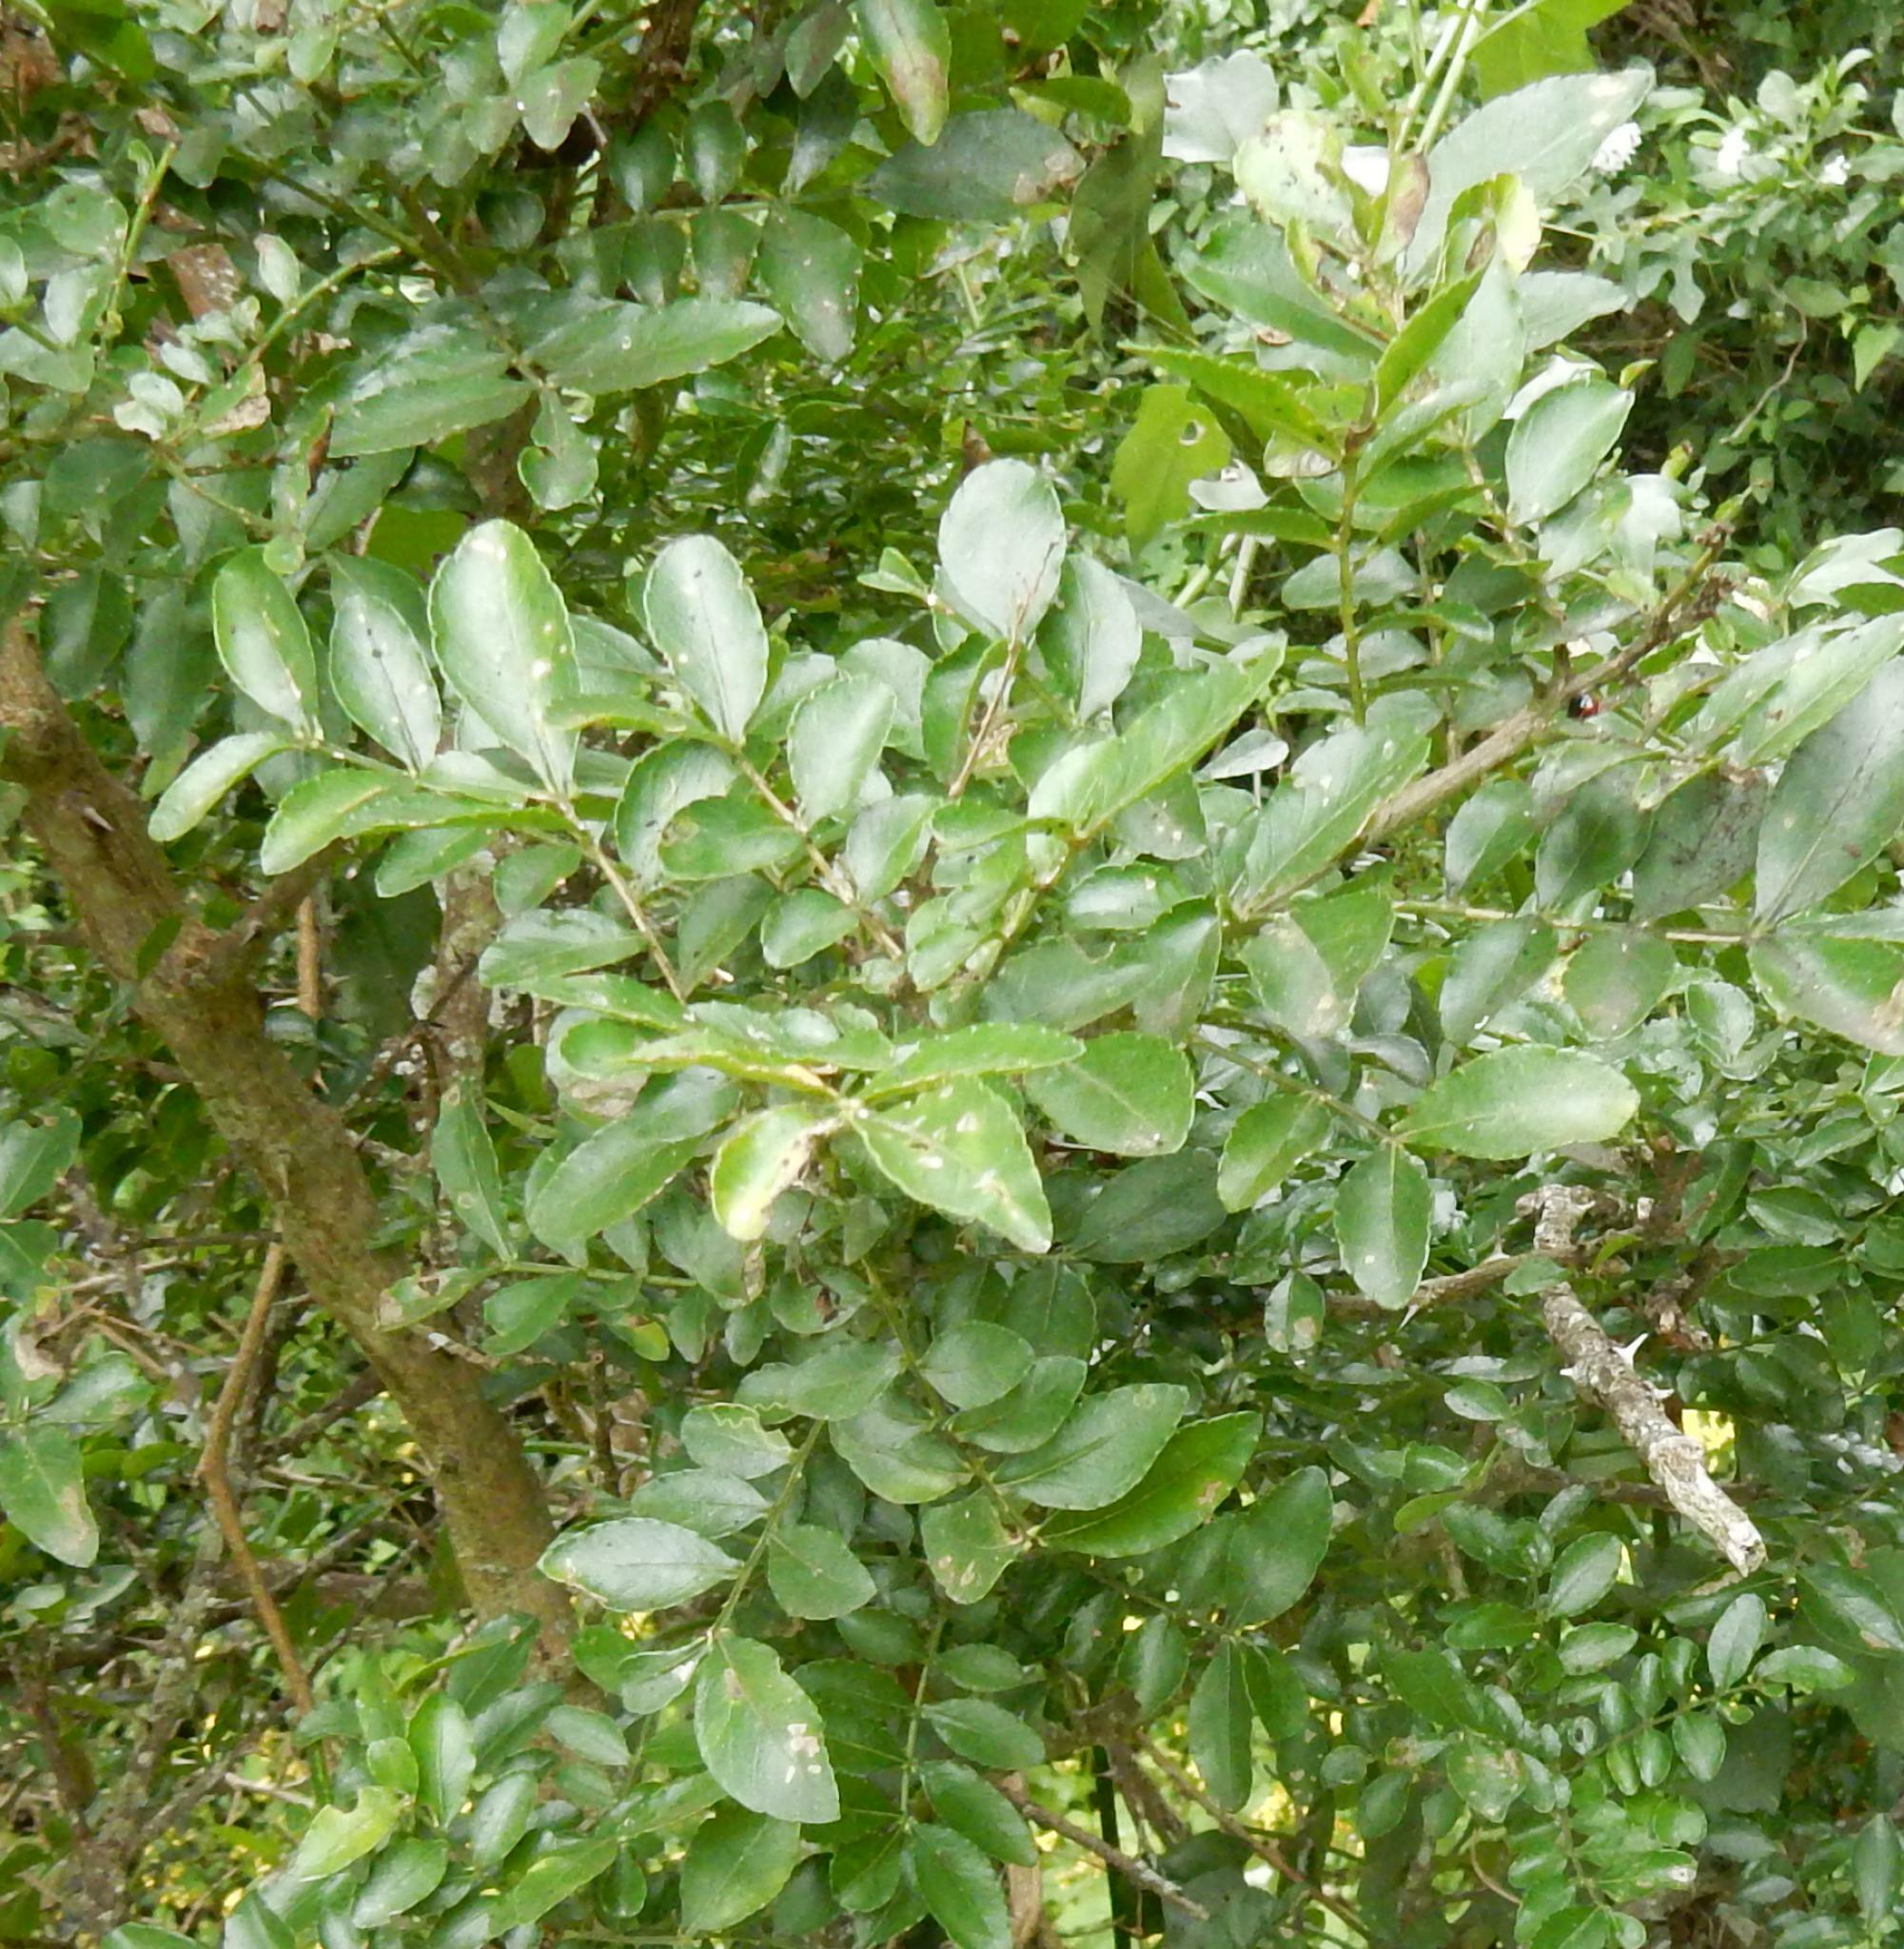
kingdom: Plantae
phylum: Tracheophyta
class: Magnoliopsida
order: Sapindales
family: Rutaceae
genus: Zanthoxylum
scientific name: Zanthoxylum capense
